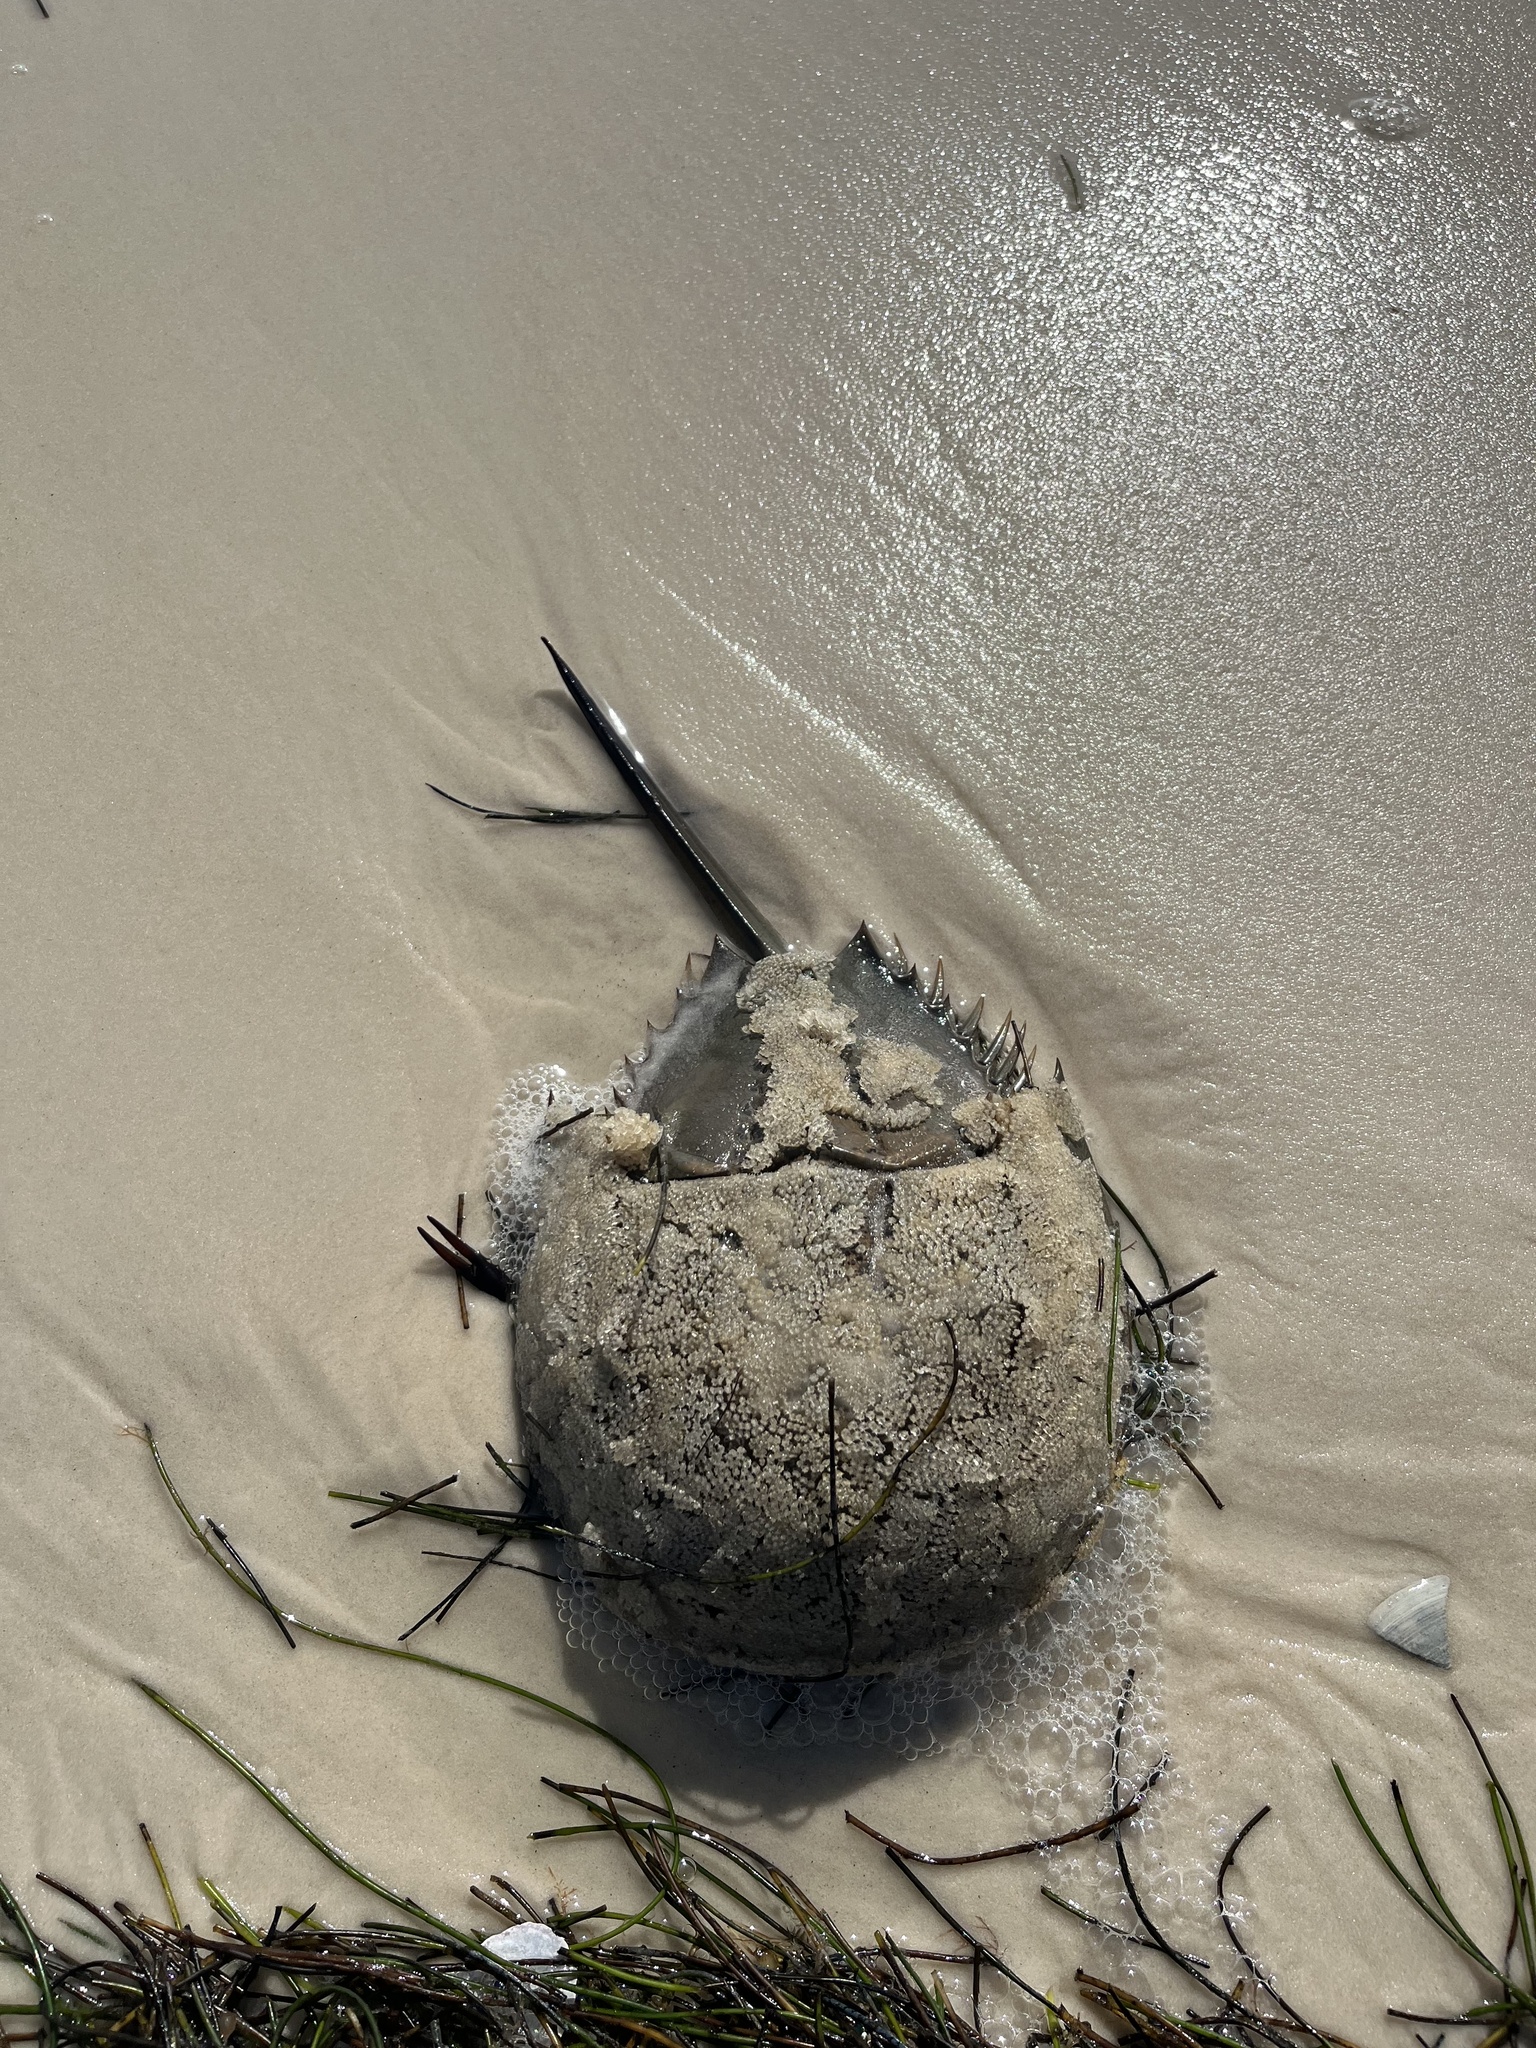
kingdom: Animalia
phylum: Arthropoda
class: Merostomata
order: Xiphosurida
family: Limulidae
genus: Limulus
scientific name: Limulus polyphemus
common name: Horseshoe crab
